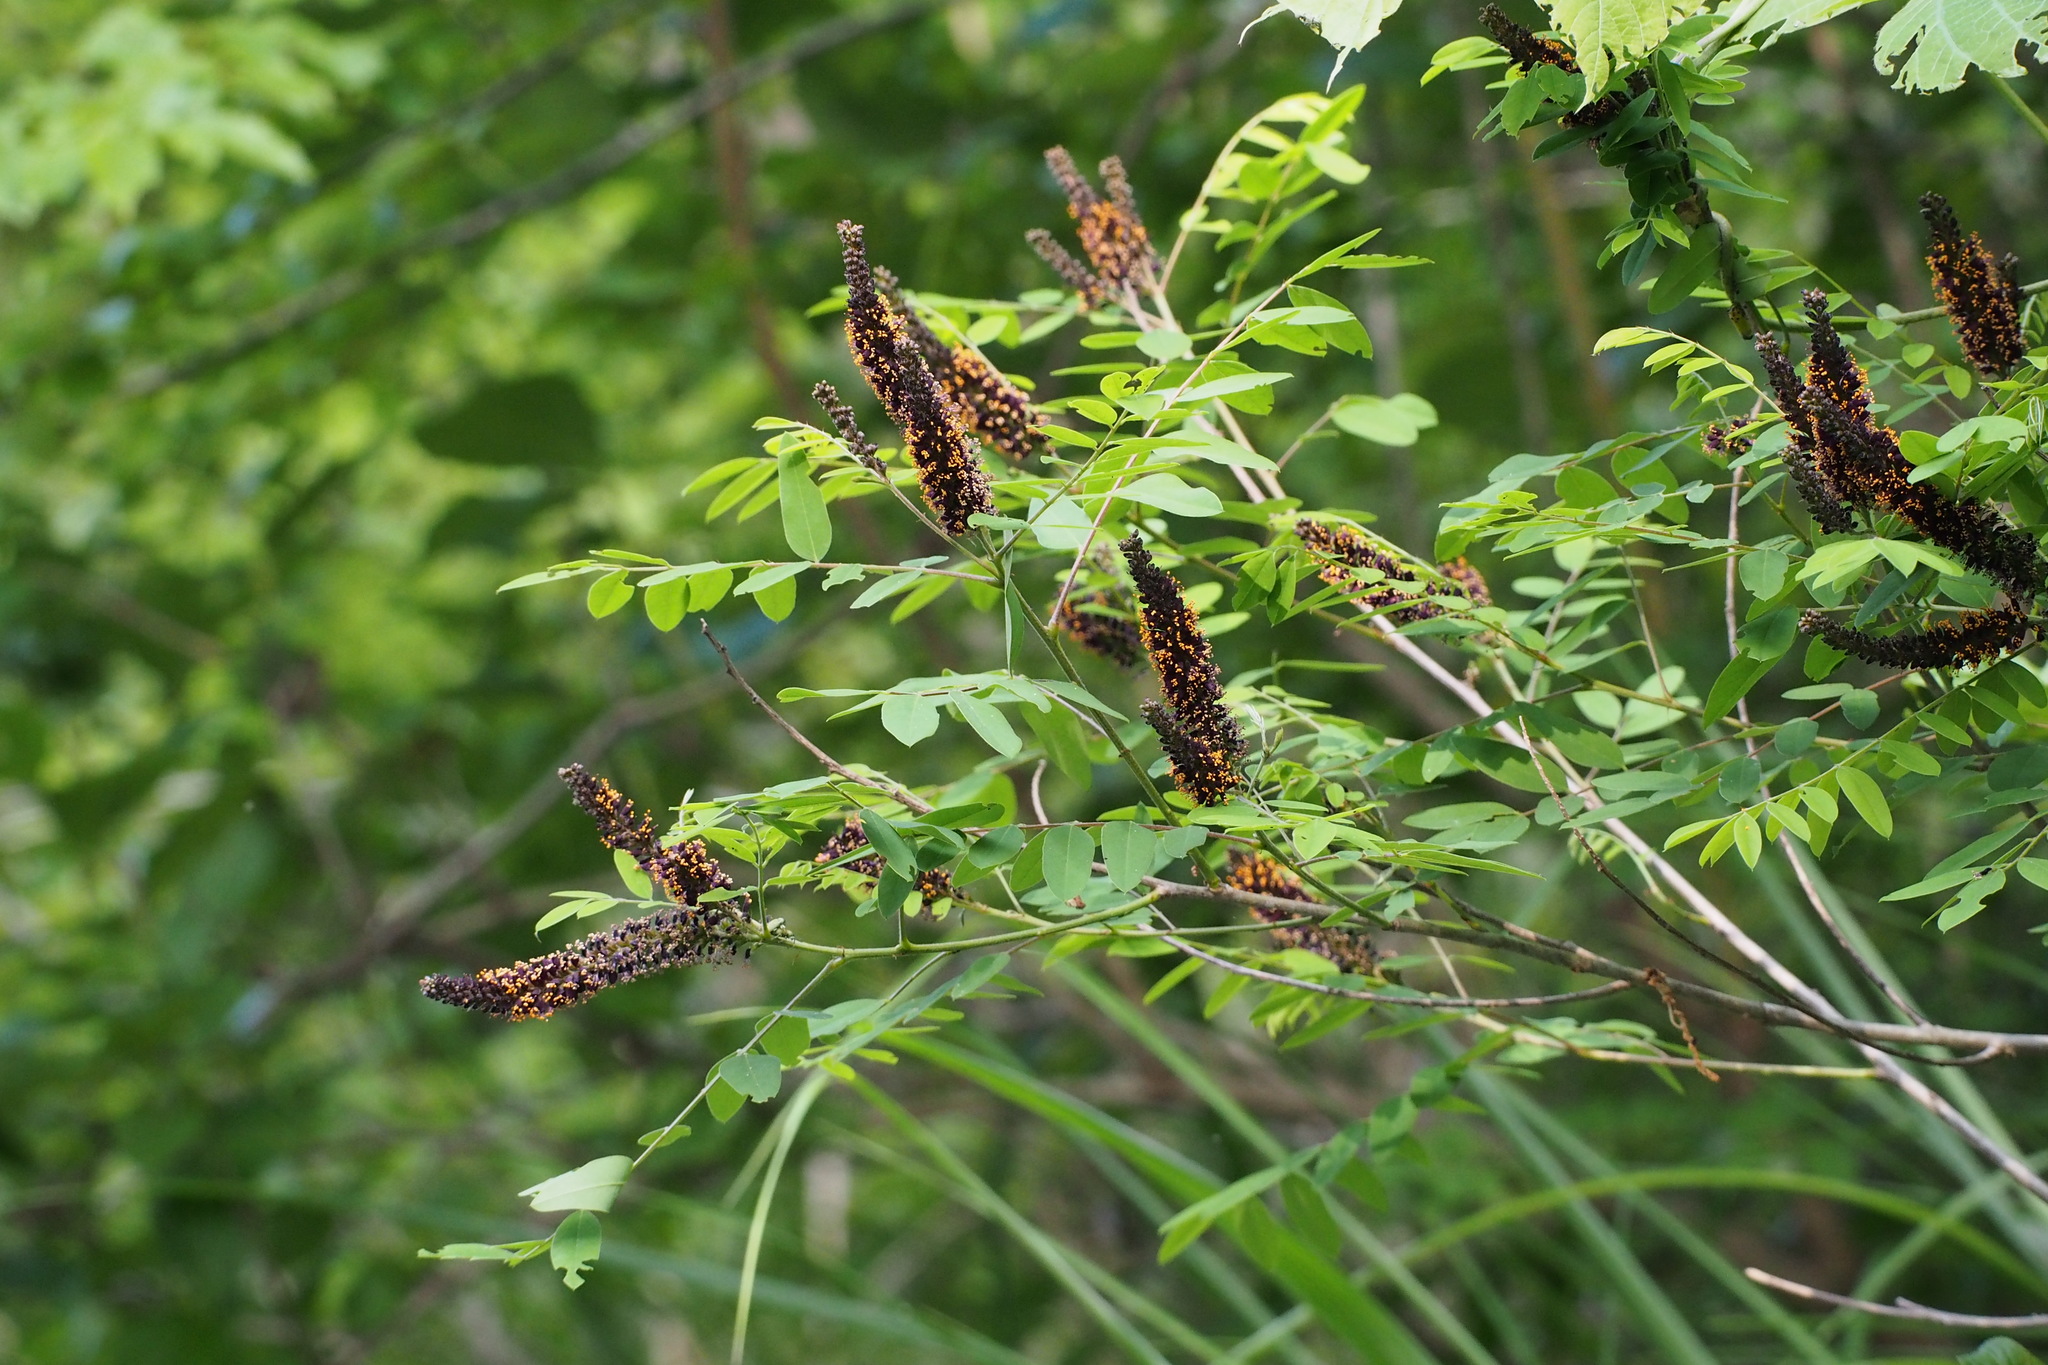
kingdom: Plantae
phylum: Tracheophyta
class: Magnoliopsida
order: Fabales
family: Fabaceae
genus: Amorpha
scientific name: Amorpha fruticosa
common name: False indigo
